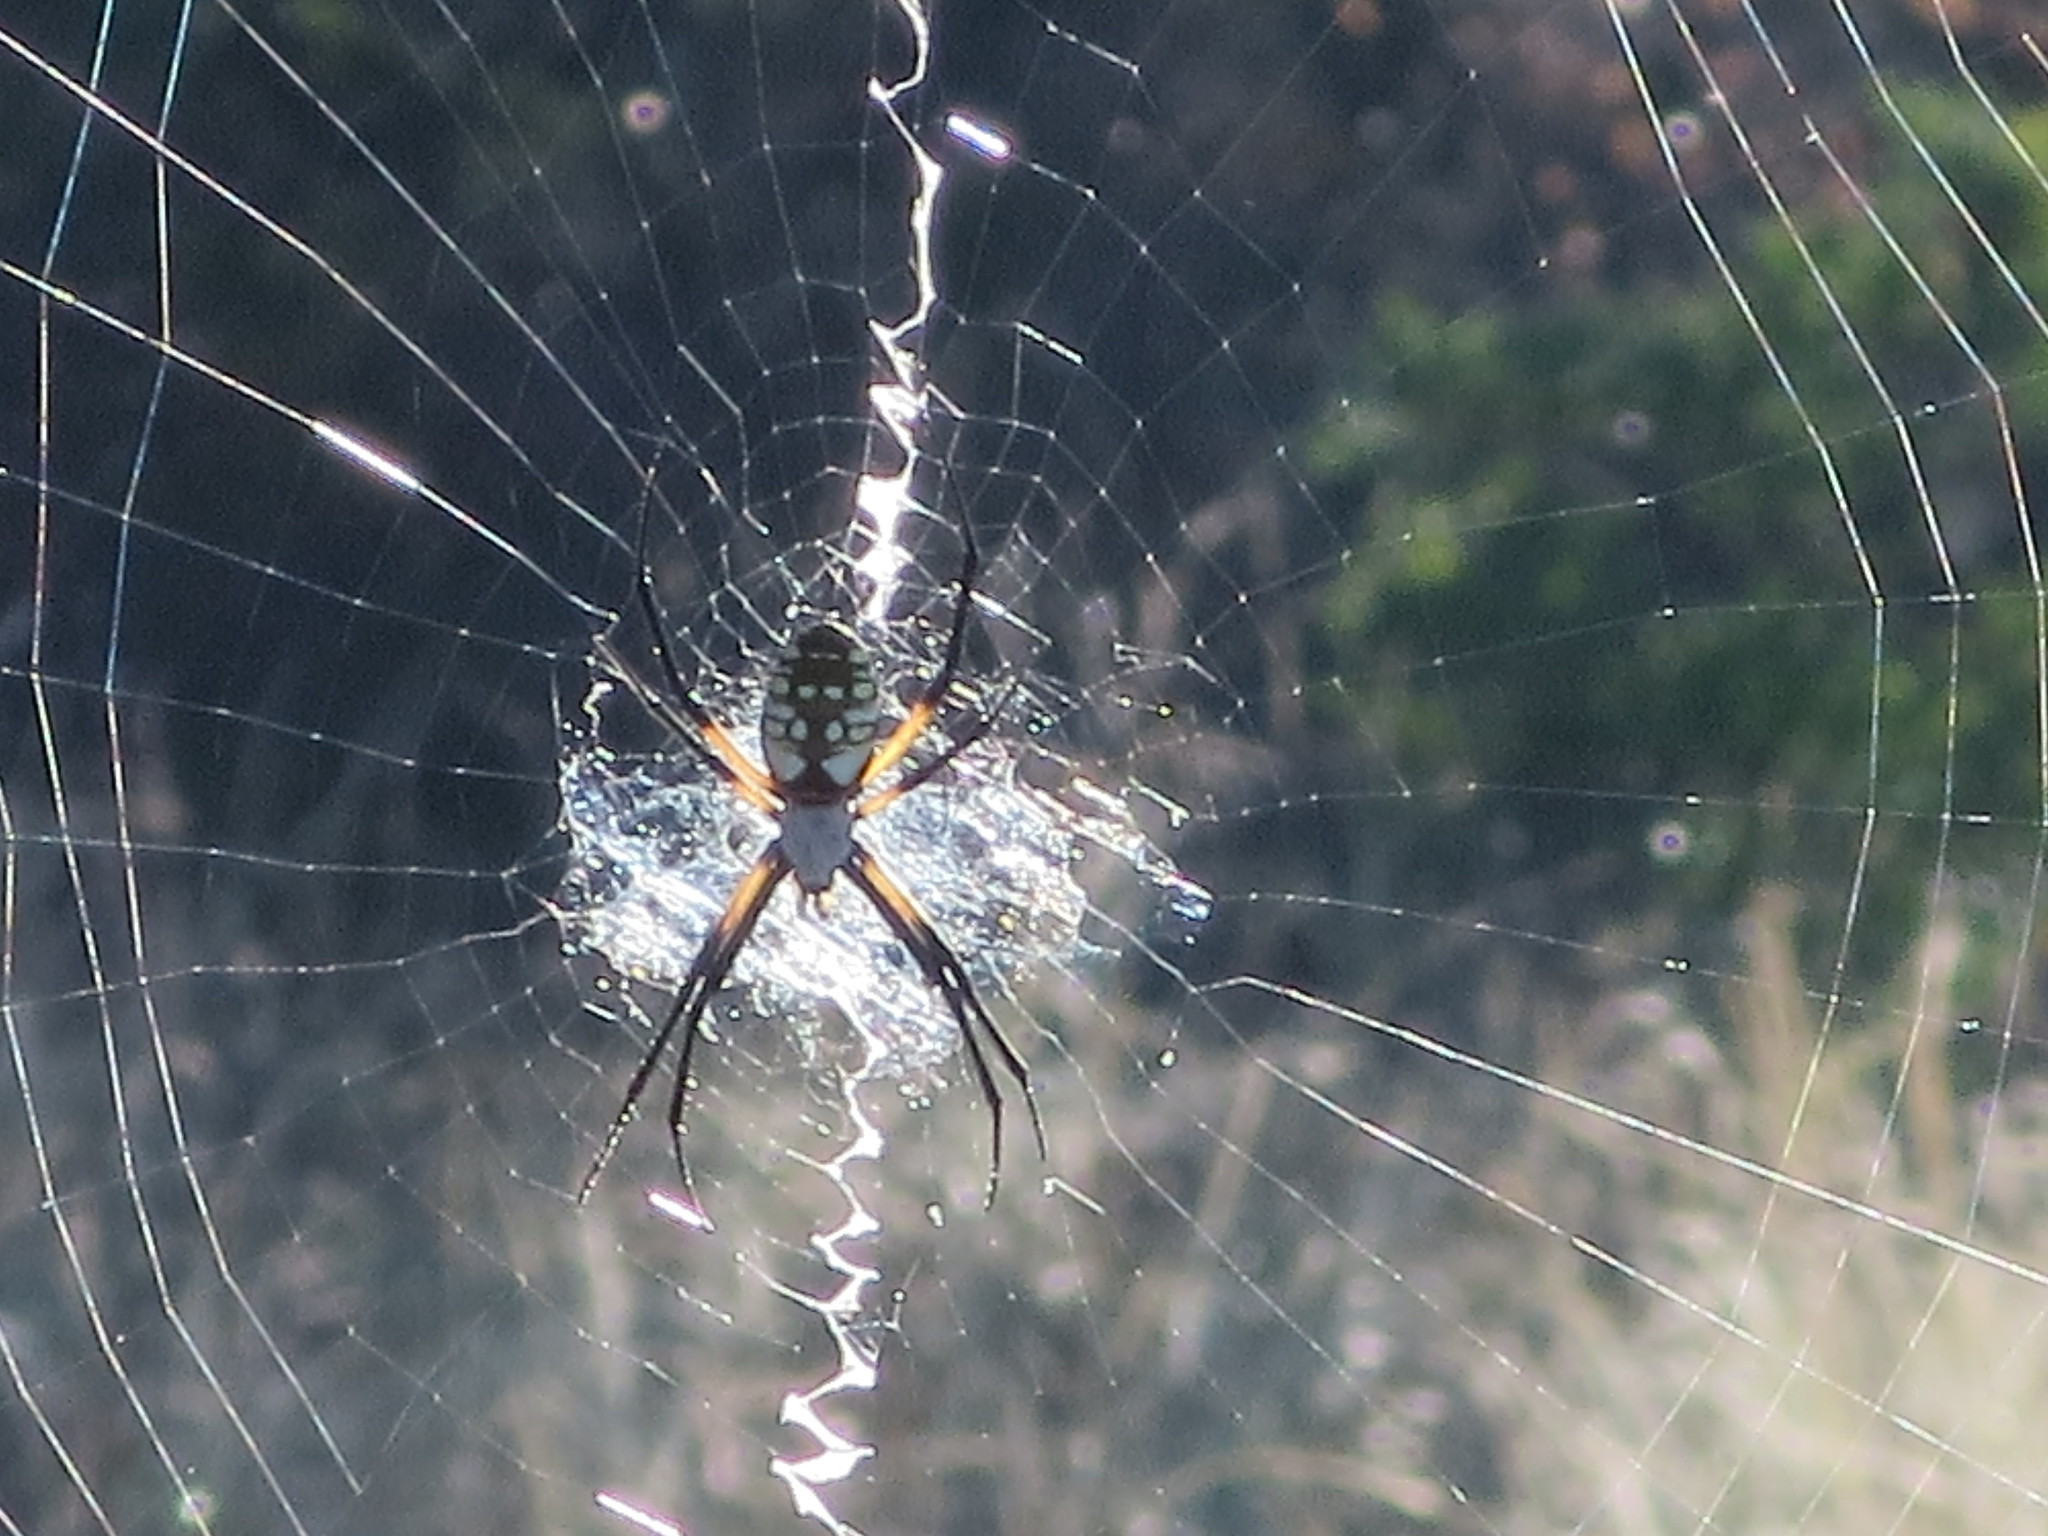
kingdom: Animalia
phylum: Arthropoda
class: Arachnida
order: Araneae
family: Araneidae
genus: Argiope
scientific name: Argiope aurantia
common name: Orb weavers
